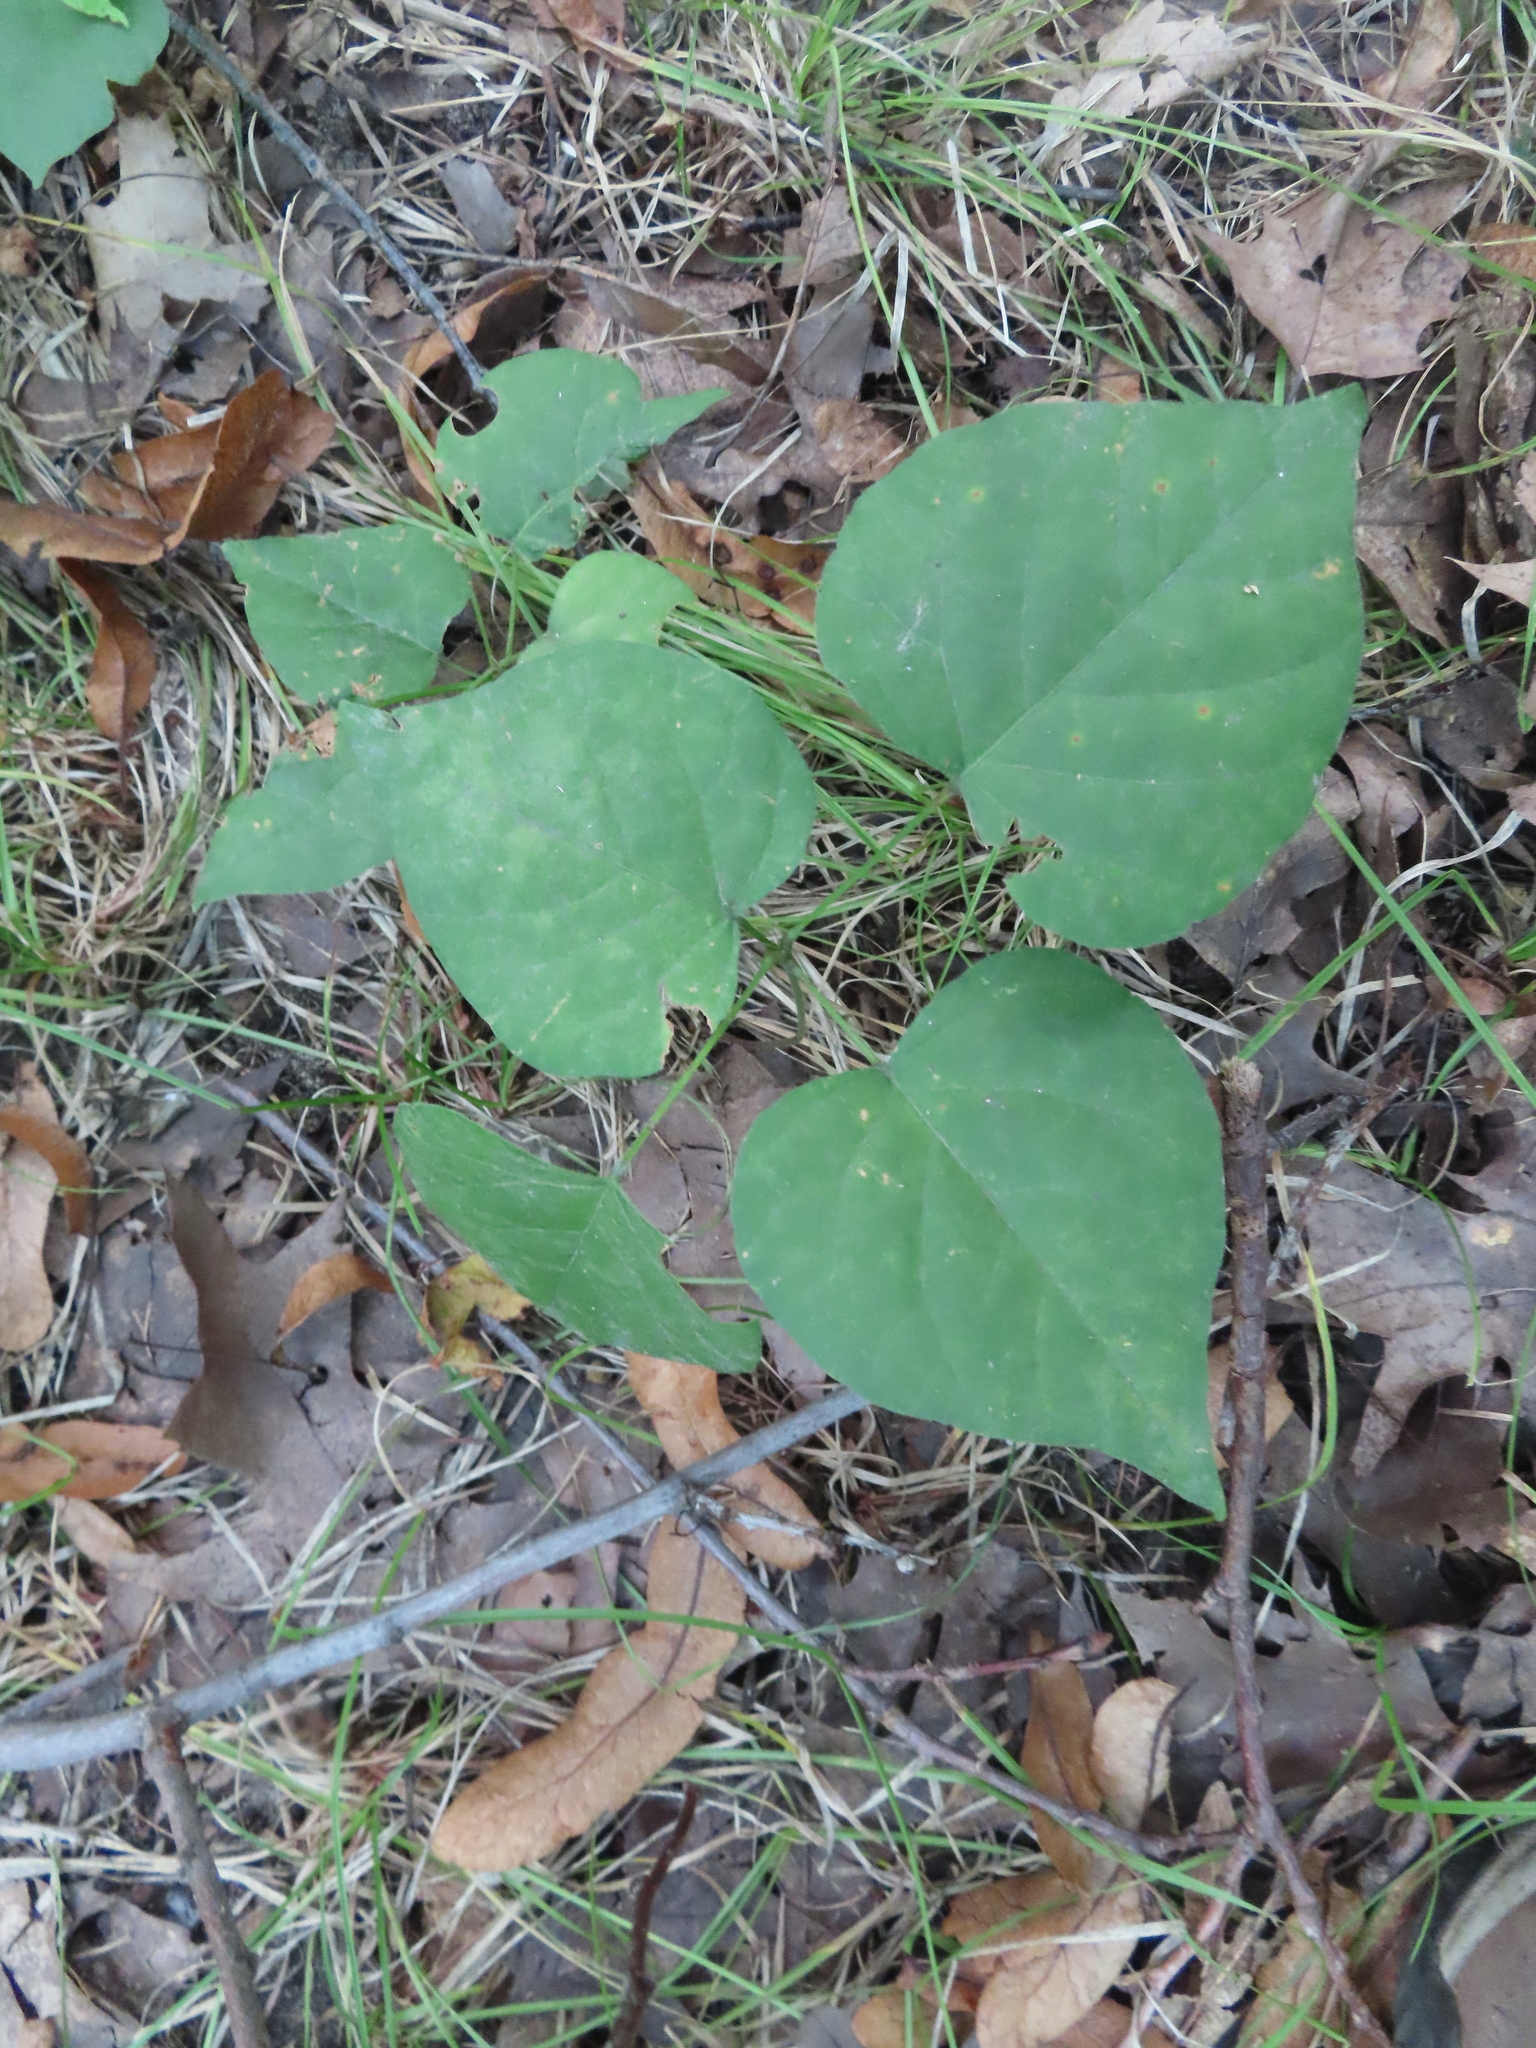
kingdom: Plantae
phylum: Tracheophyta
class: Magnoliopsida
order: Fabales
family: Fabaceae
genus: Hylodesmum
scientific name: Hylodesmum glutinosum
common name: Clustered-leaved tick-trefoil
